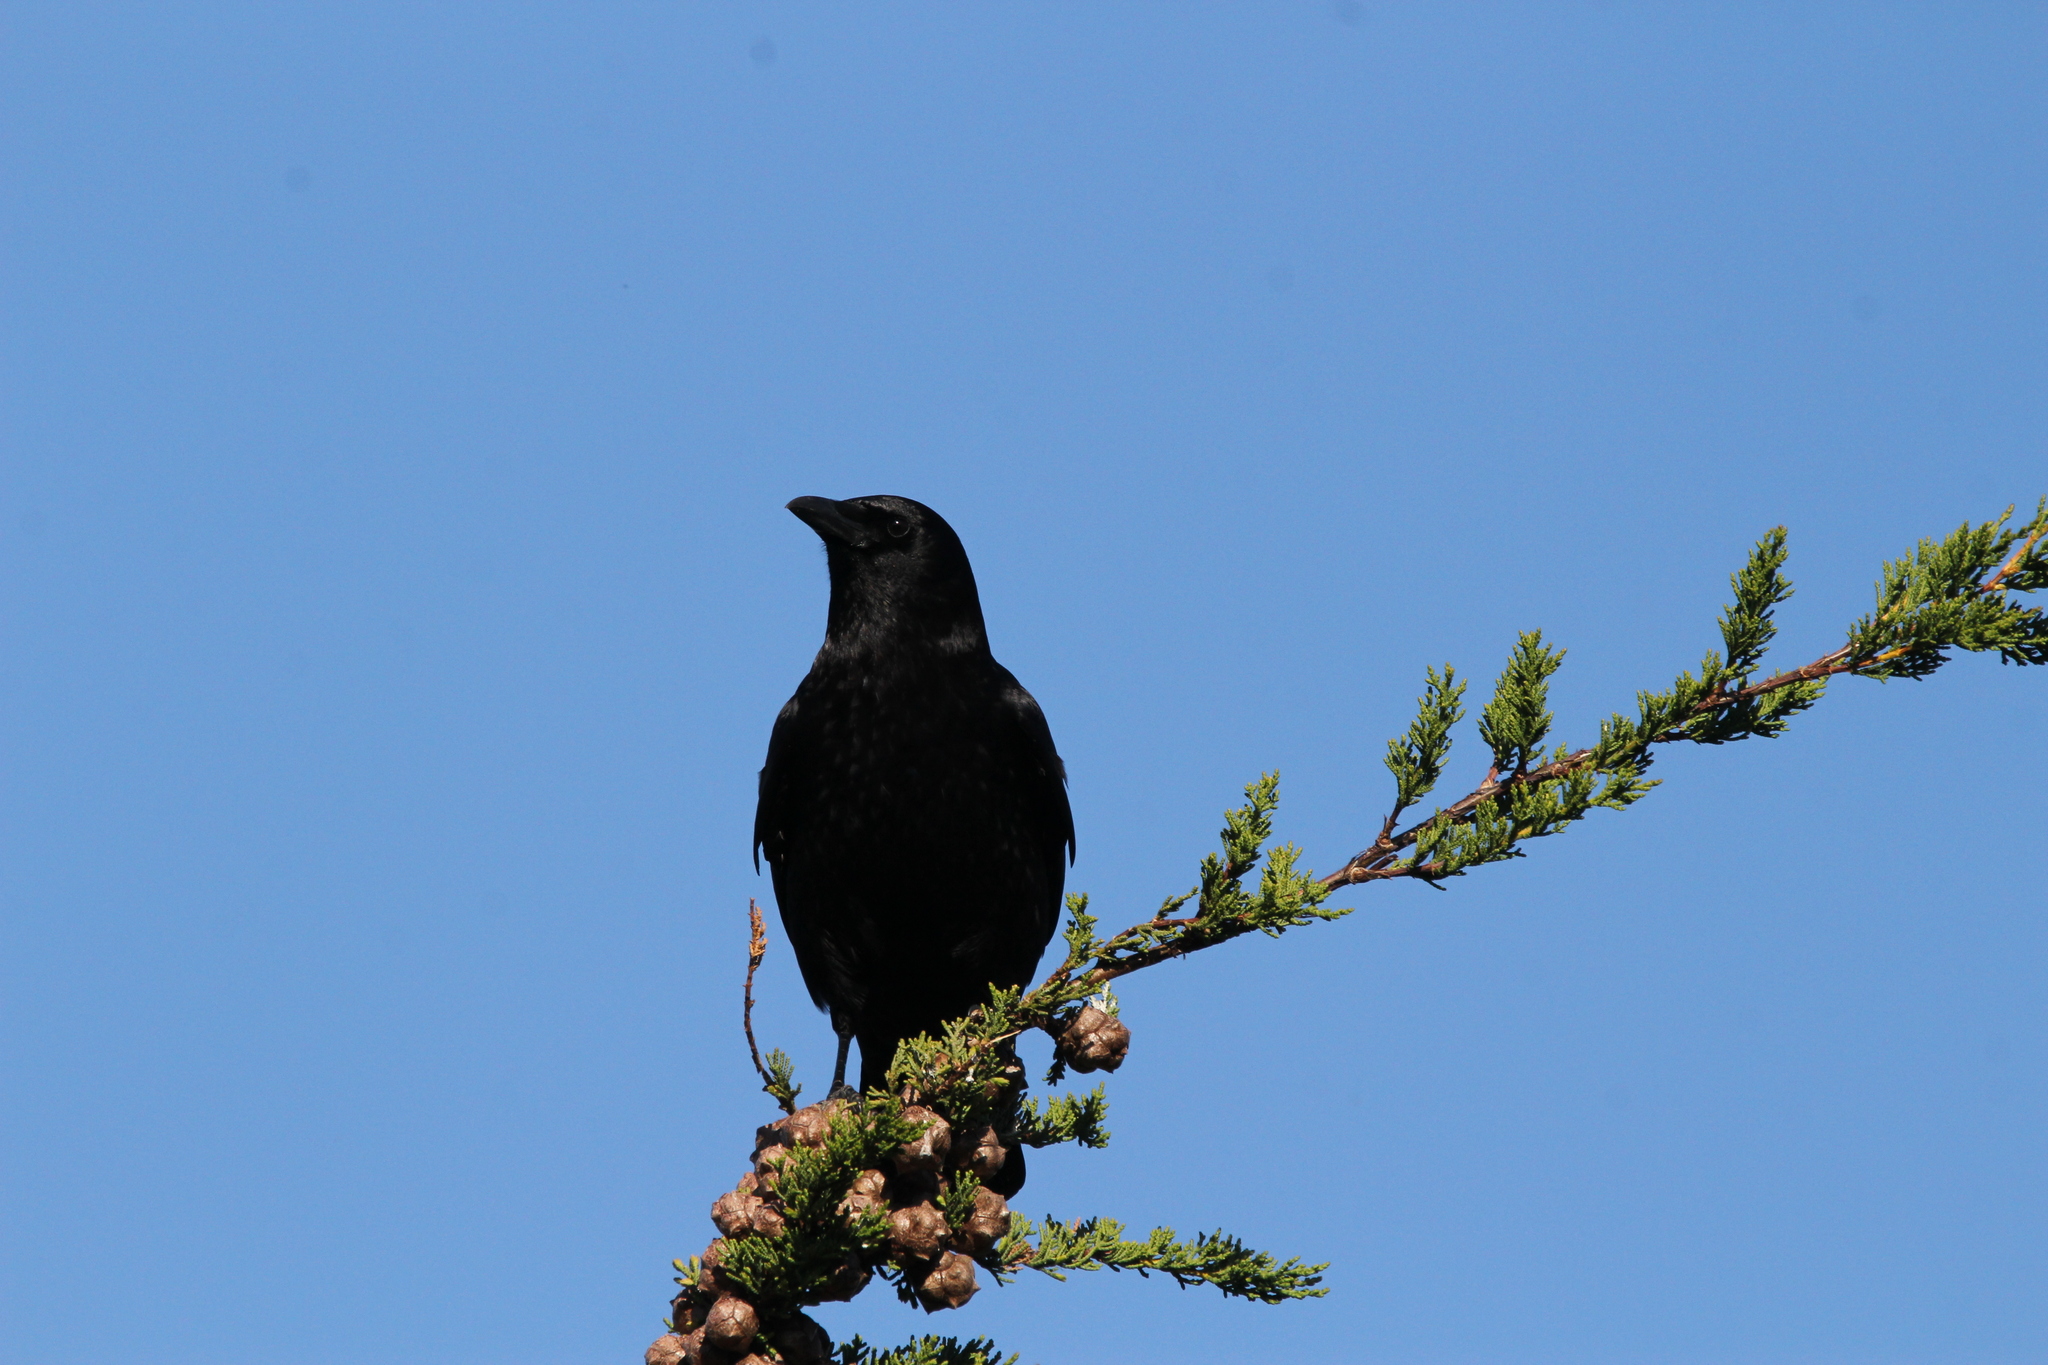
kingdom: Animalia
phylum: Chordata
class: Aves
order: Passeriformes
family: Corvidae
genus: Corvus
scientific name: Corvus brachyrhynchos
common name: American crow
